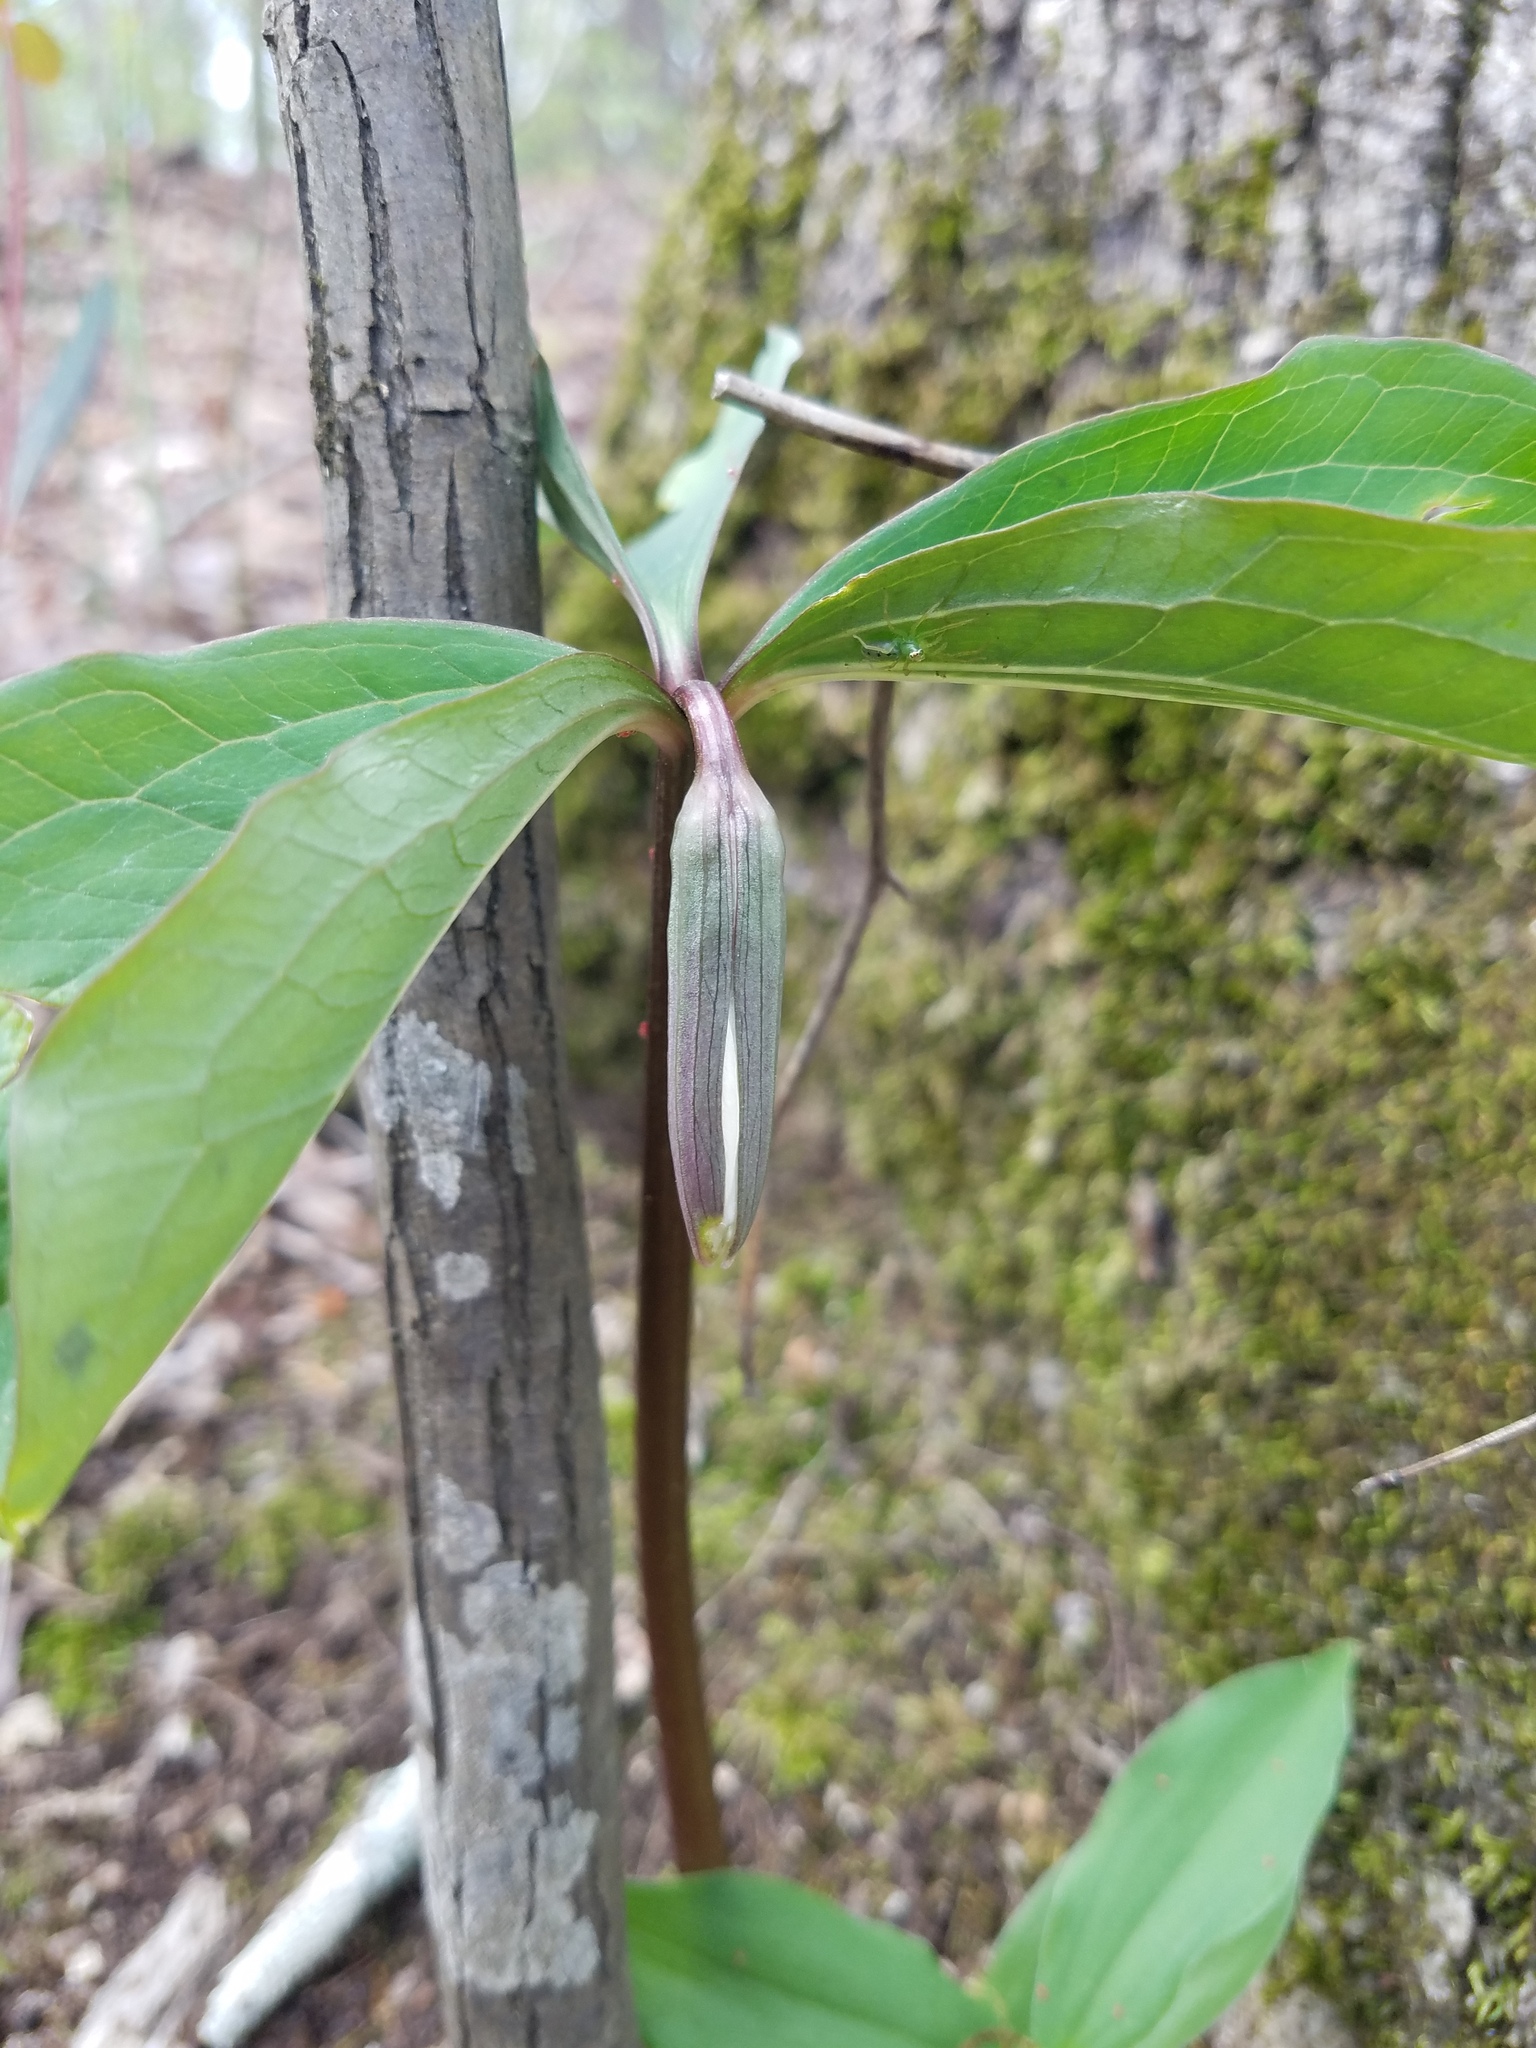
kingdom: Plantae
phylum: Tracheophyta
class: Liliopsida
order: Liliales
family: Melanthiaceae
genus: Trillium
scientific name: Trillium catesbaei
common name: Bashful trillium
